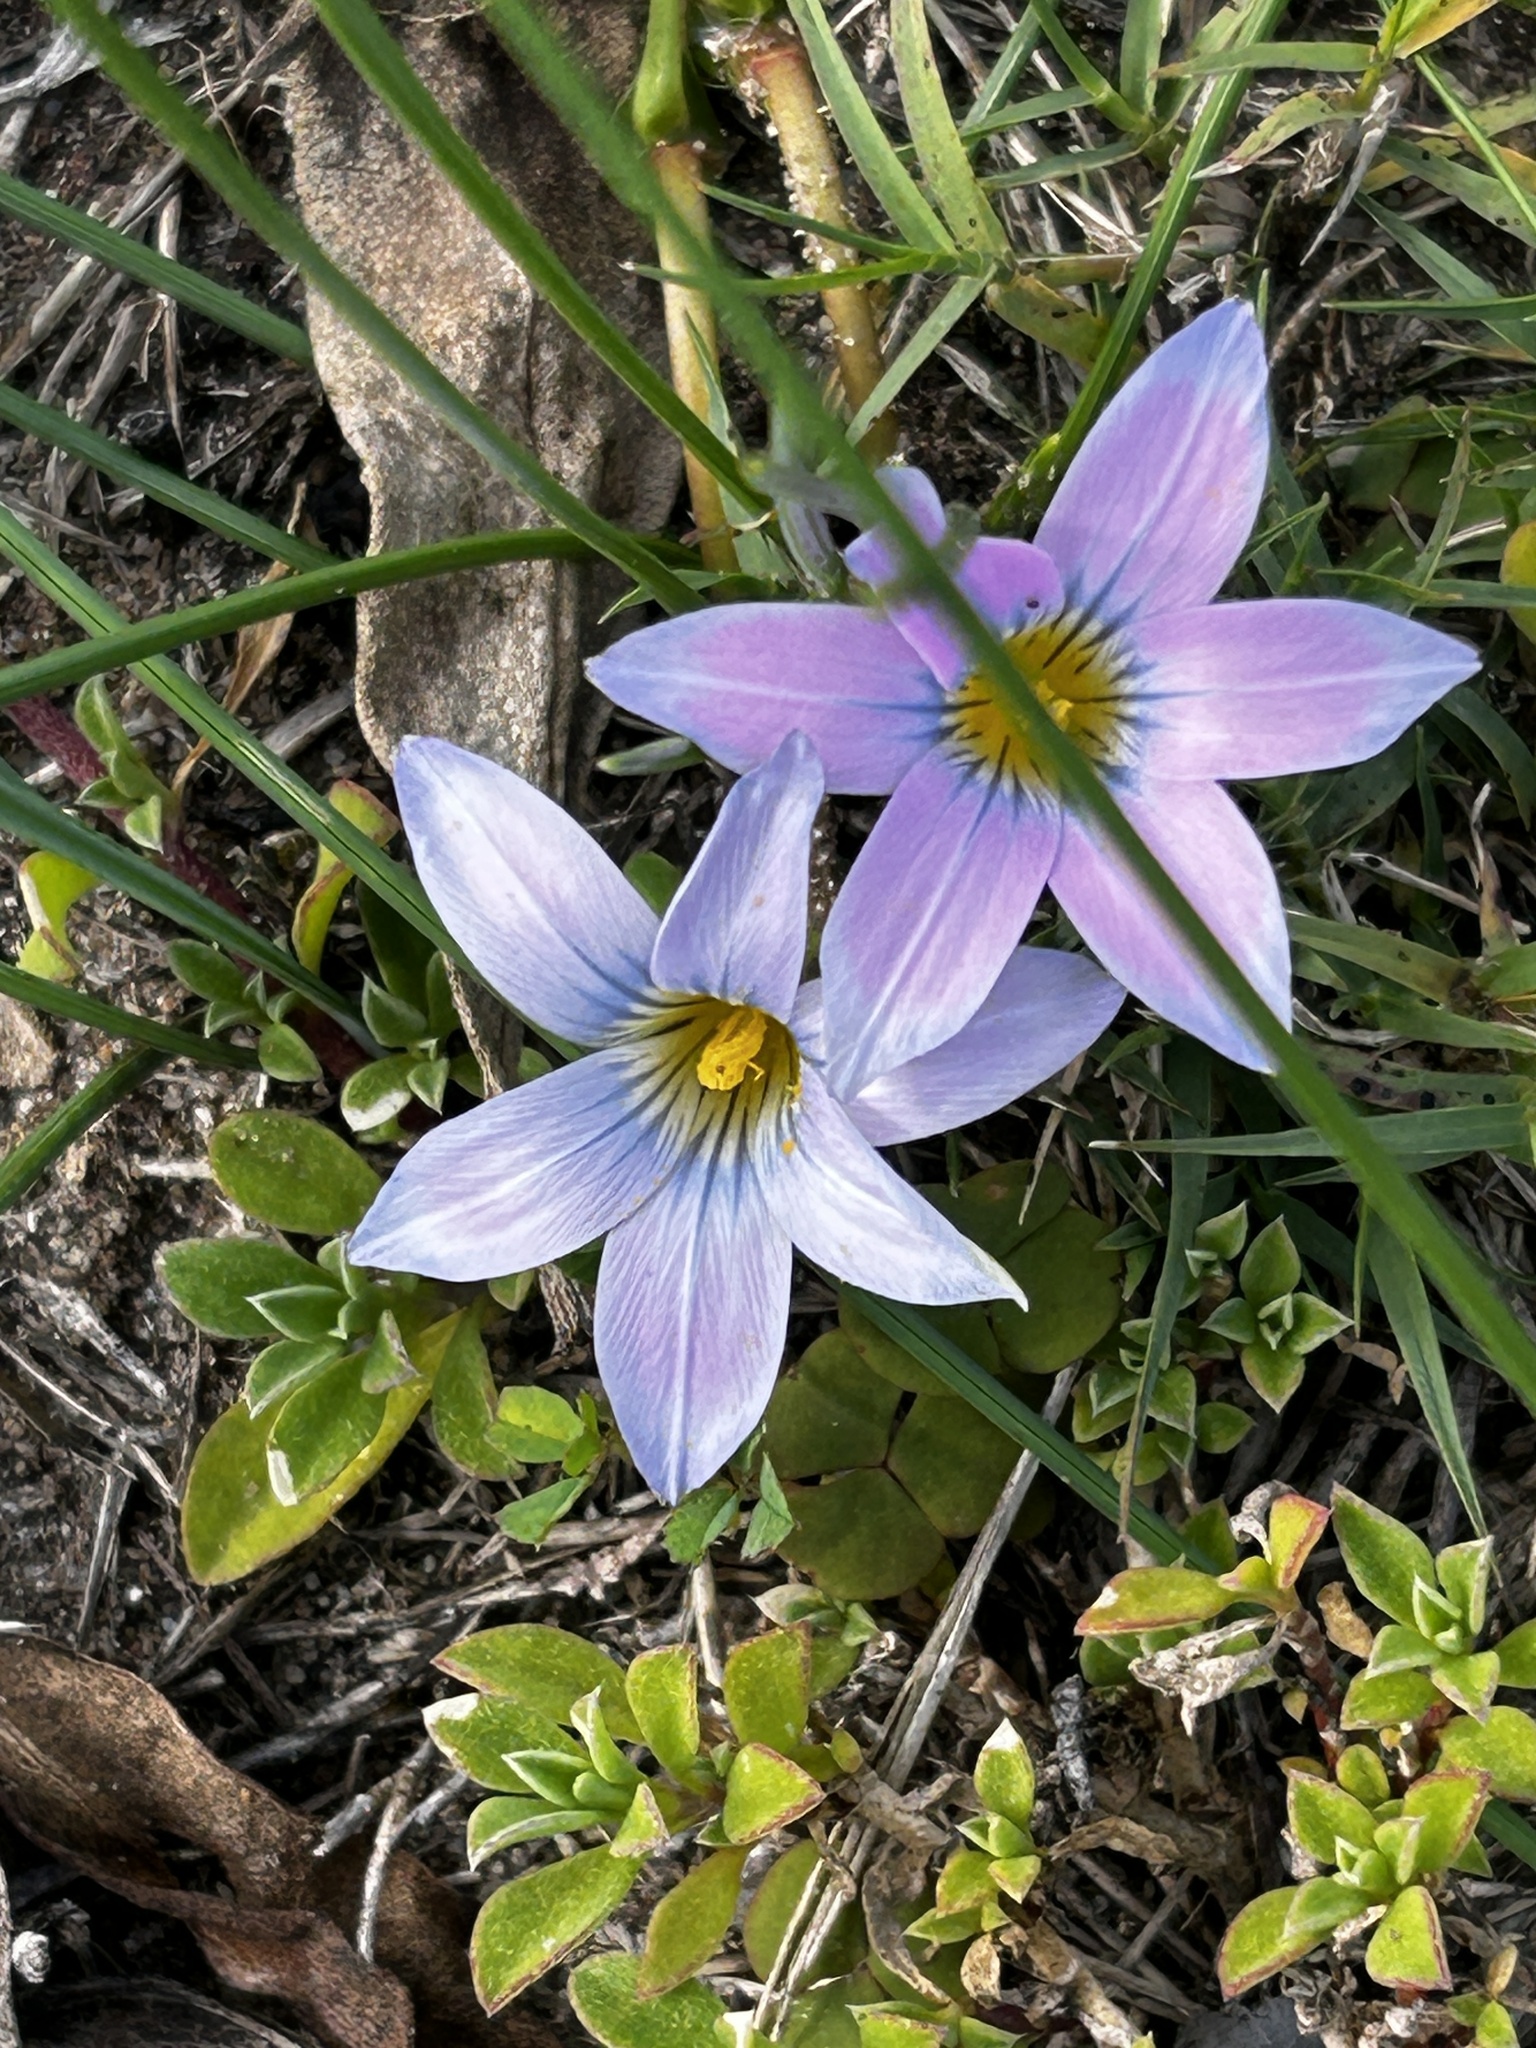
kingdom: Plantae
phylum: Tracheophyta
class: Liliopsida
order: Asparagales
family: Iridaceae
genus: Romulea
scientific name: Romulea rosea
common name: Oniongrass
